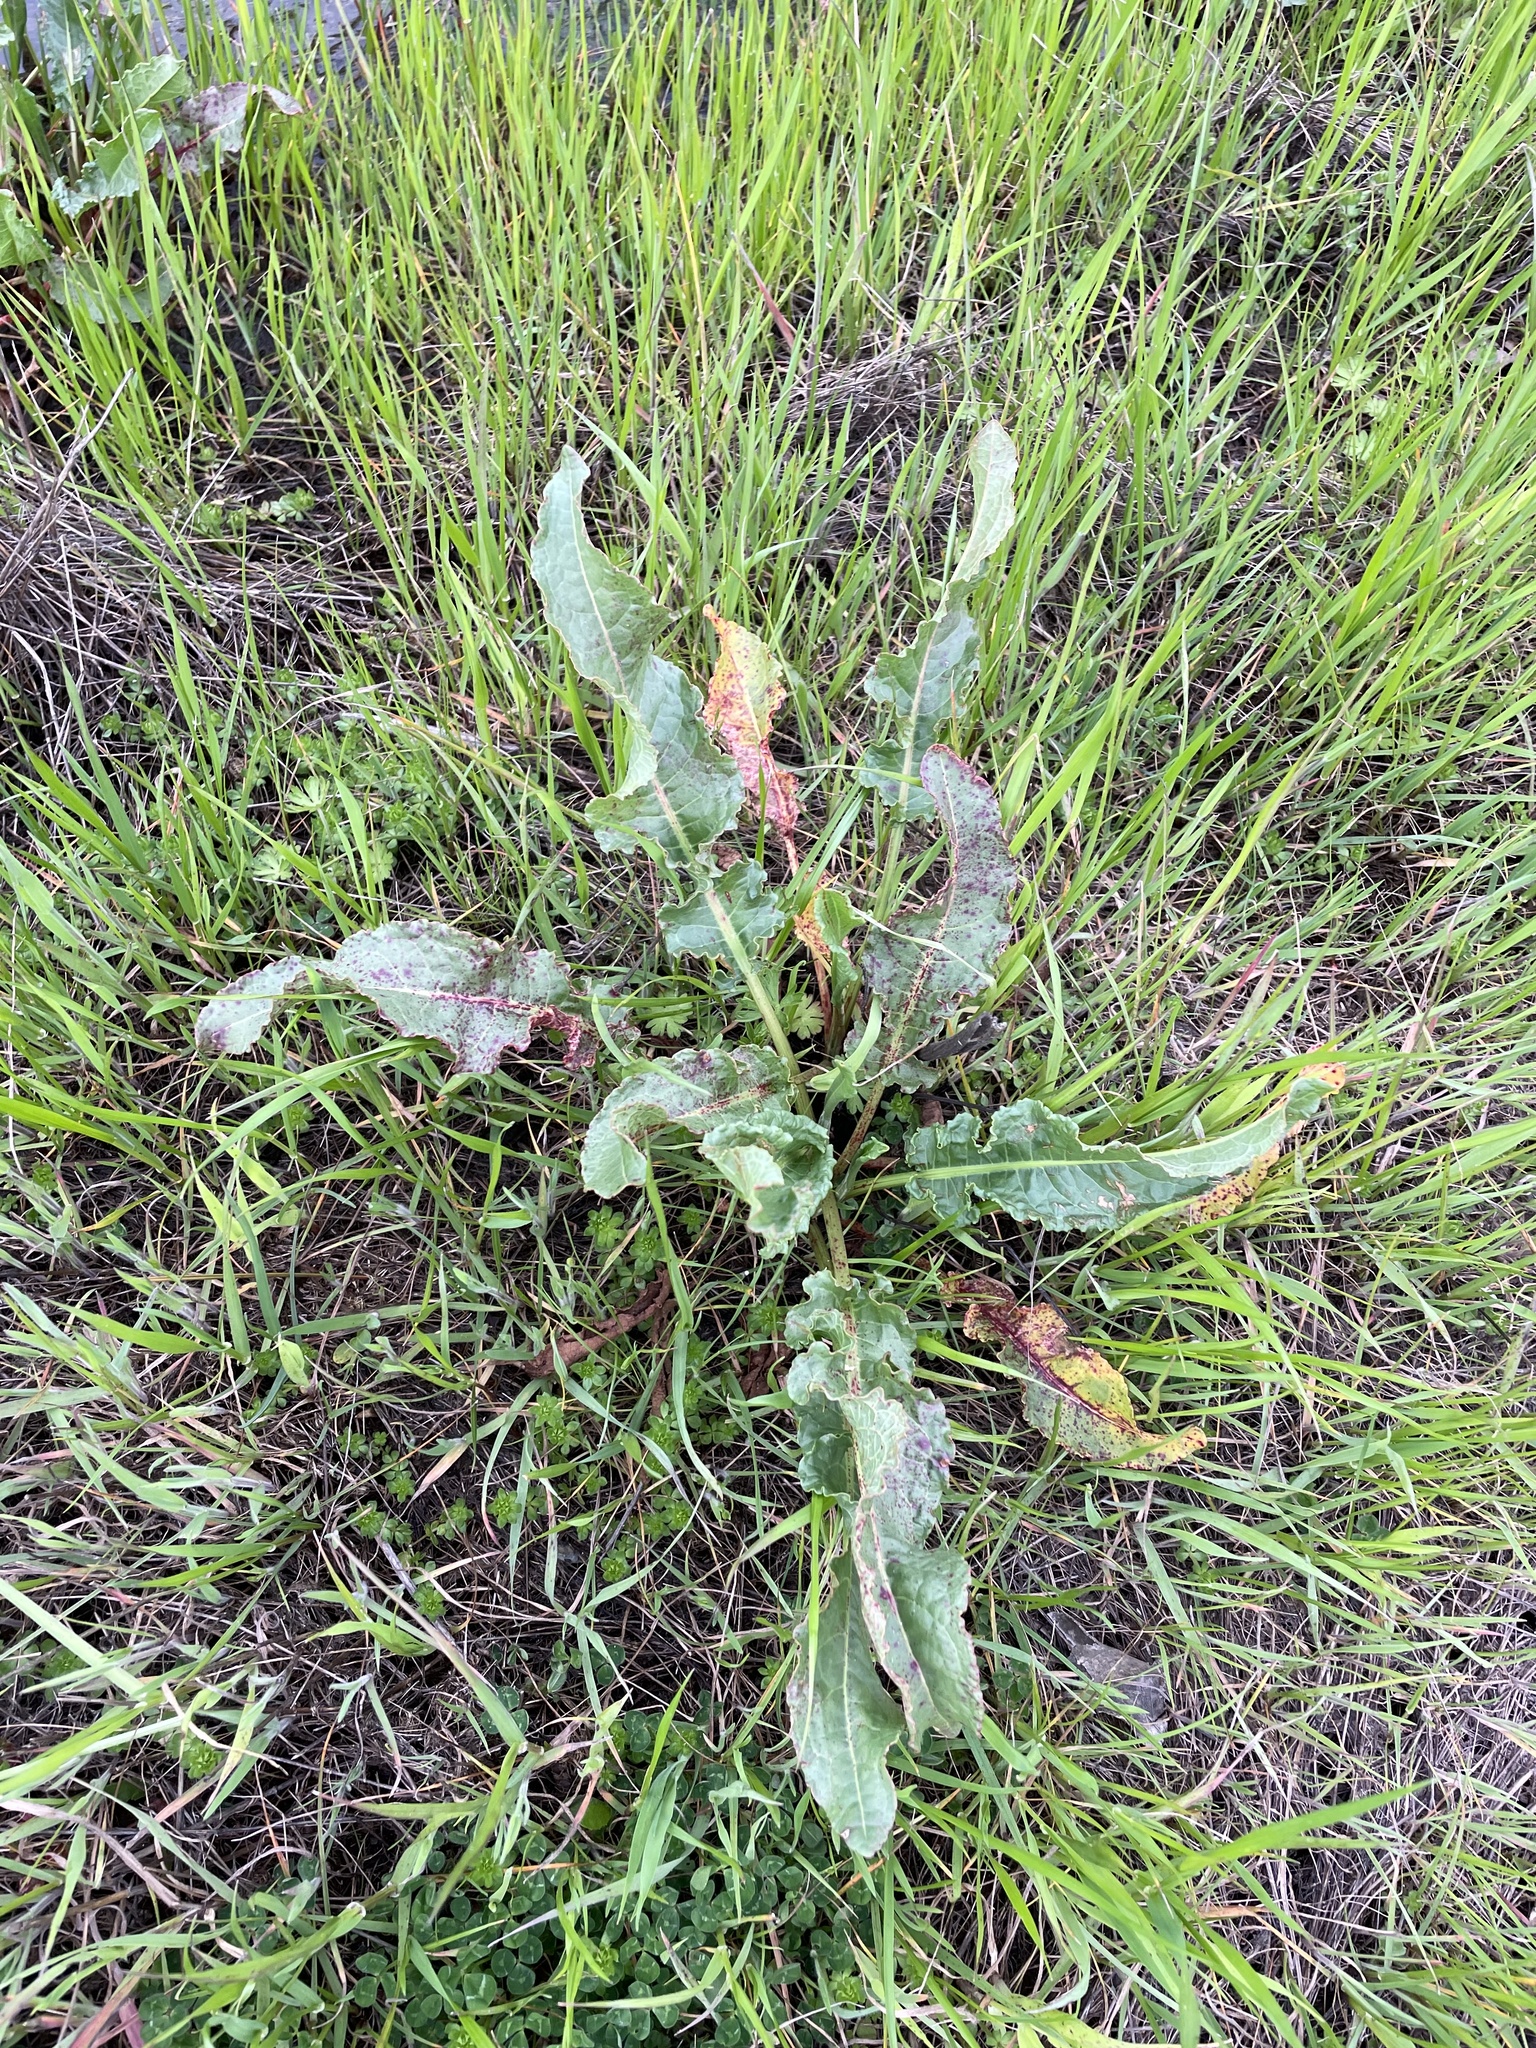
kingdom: Plantae
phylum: Tracheophyta
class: Magnoliopsida
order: Caryophyllales
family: Polygonaceae
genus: Rumex
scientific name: Rumex crispus
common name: Curled dock
